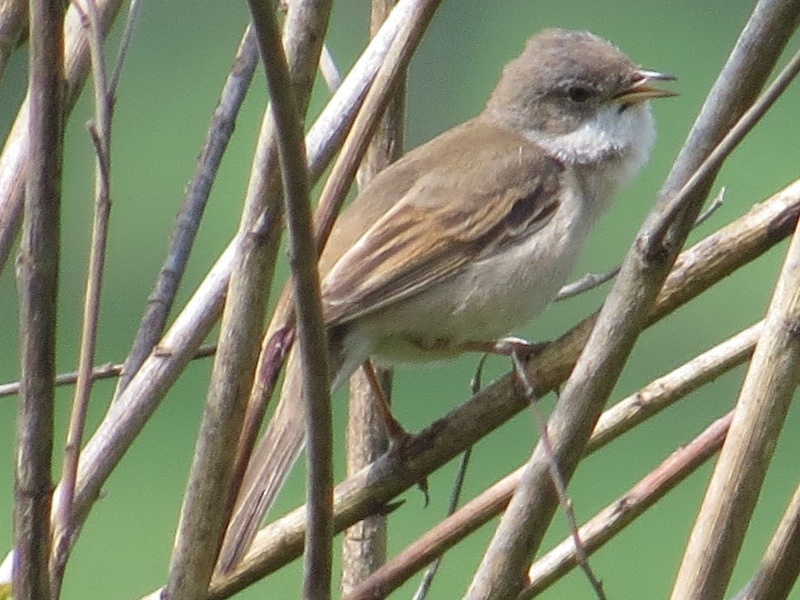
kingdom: Animalia
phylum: Chordata
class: Aves
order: Passeriformes
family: Sylviidae
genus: Sylvia
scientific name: Sylvia communis
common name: Common whitethroat
